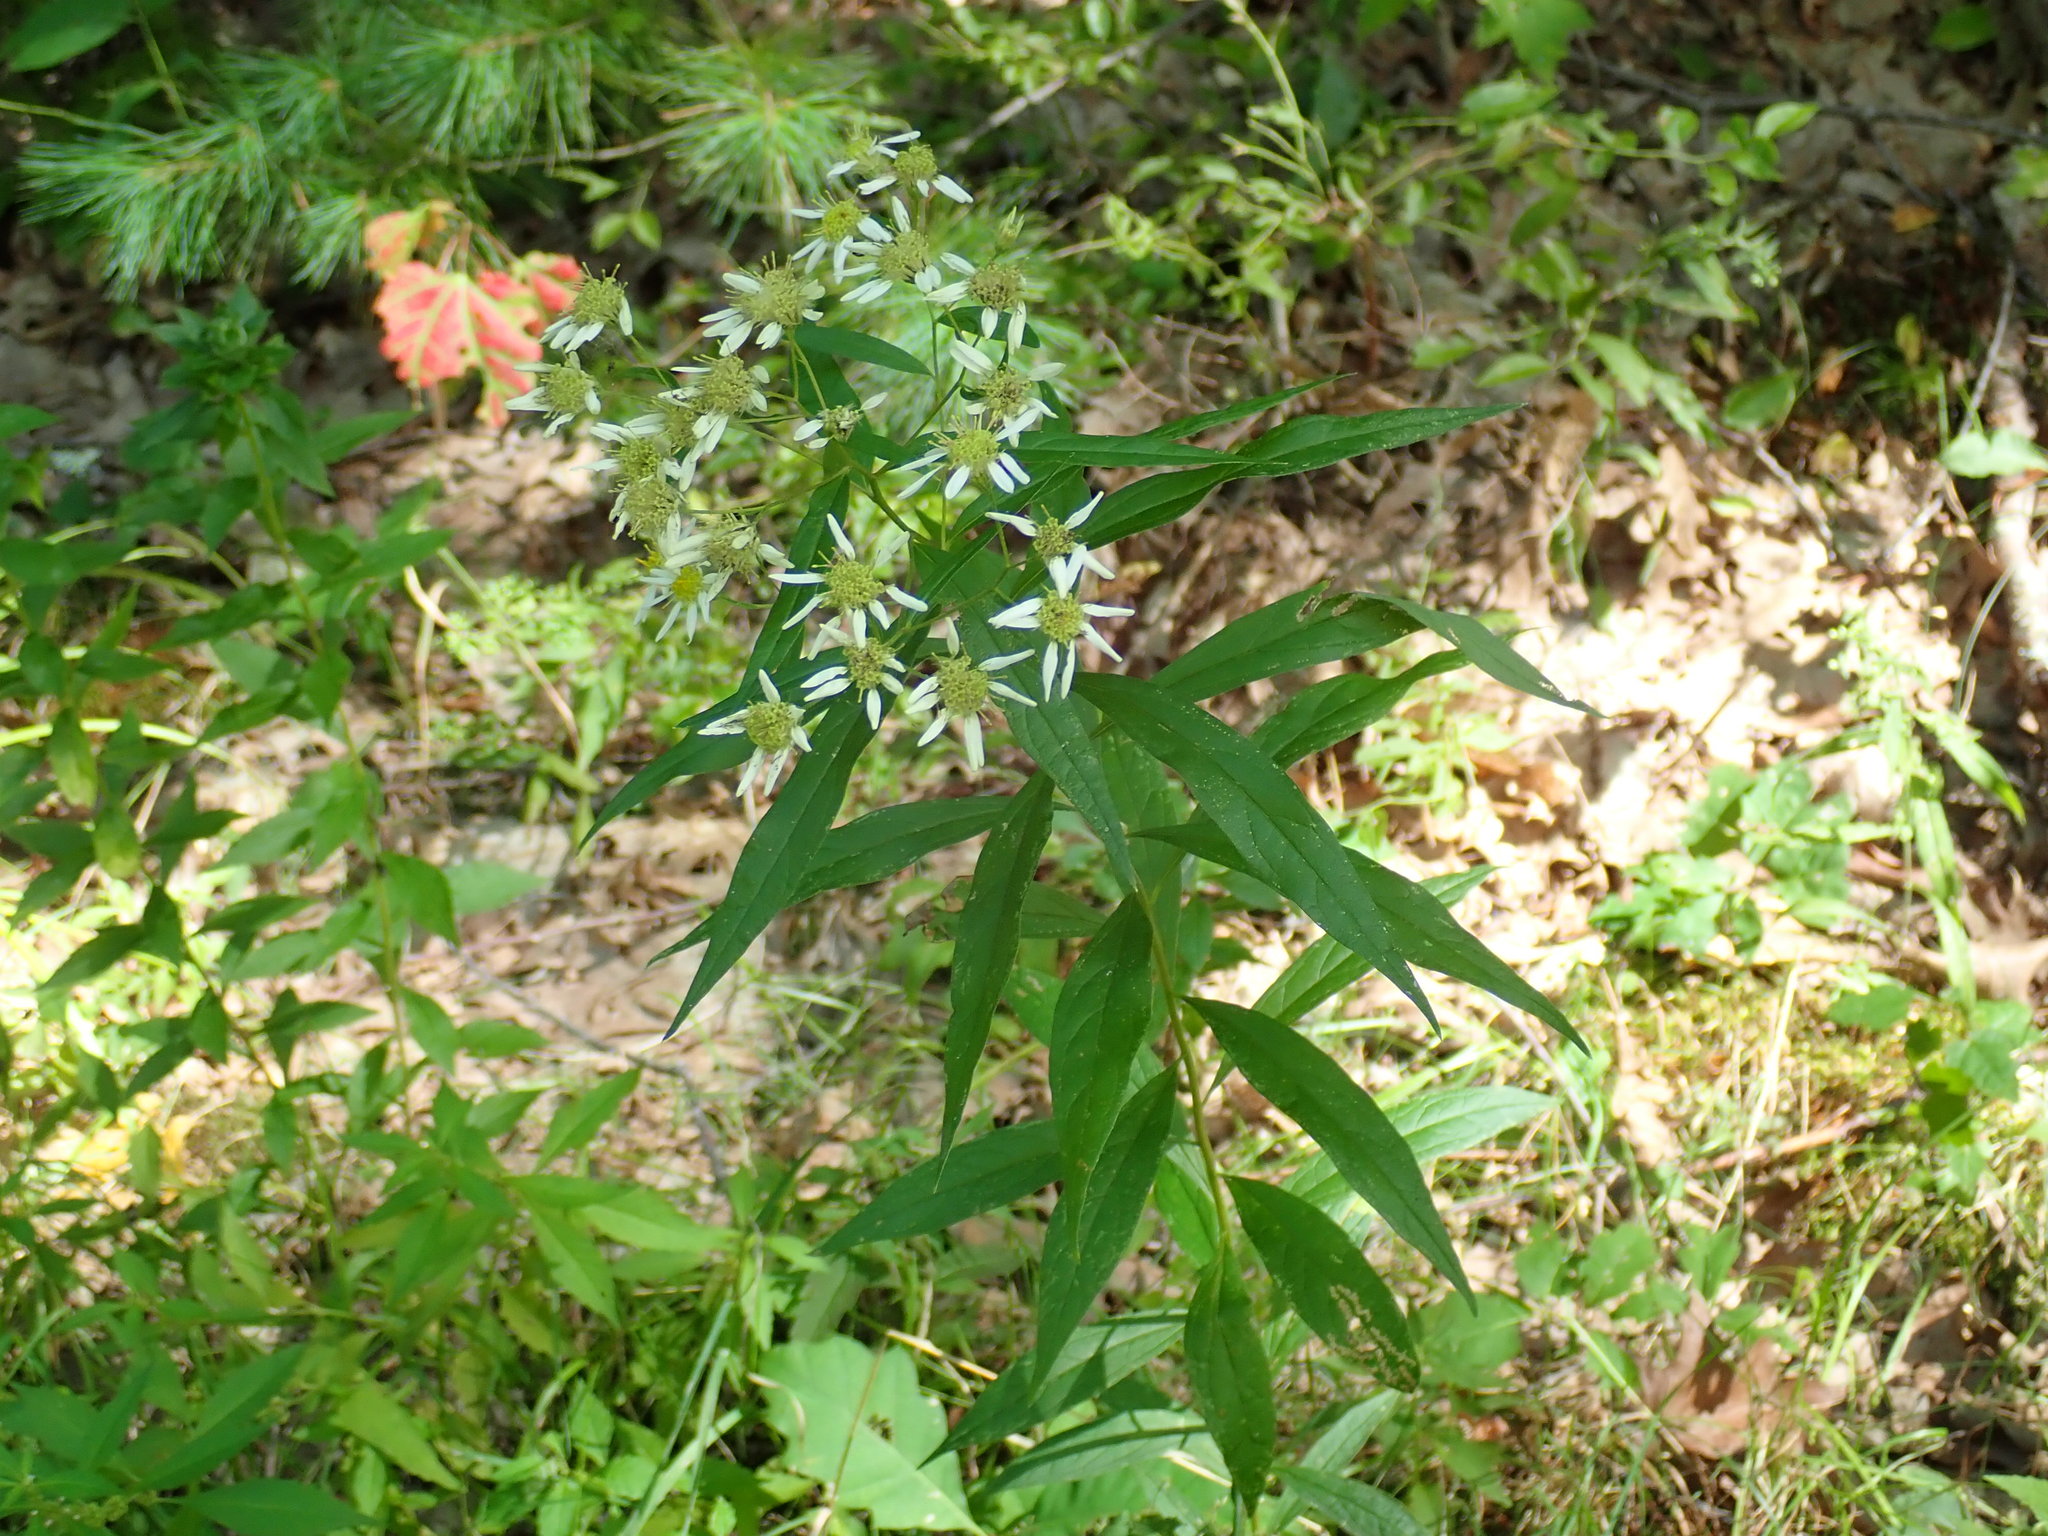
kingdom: Plantae
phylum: Tracheophyta
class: Magnoliopsida
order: Asterales
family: Asteraceae
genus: Doellingeria
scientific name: Doellingeria umbellata
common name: Flat-top white aster
